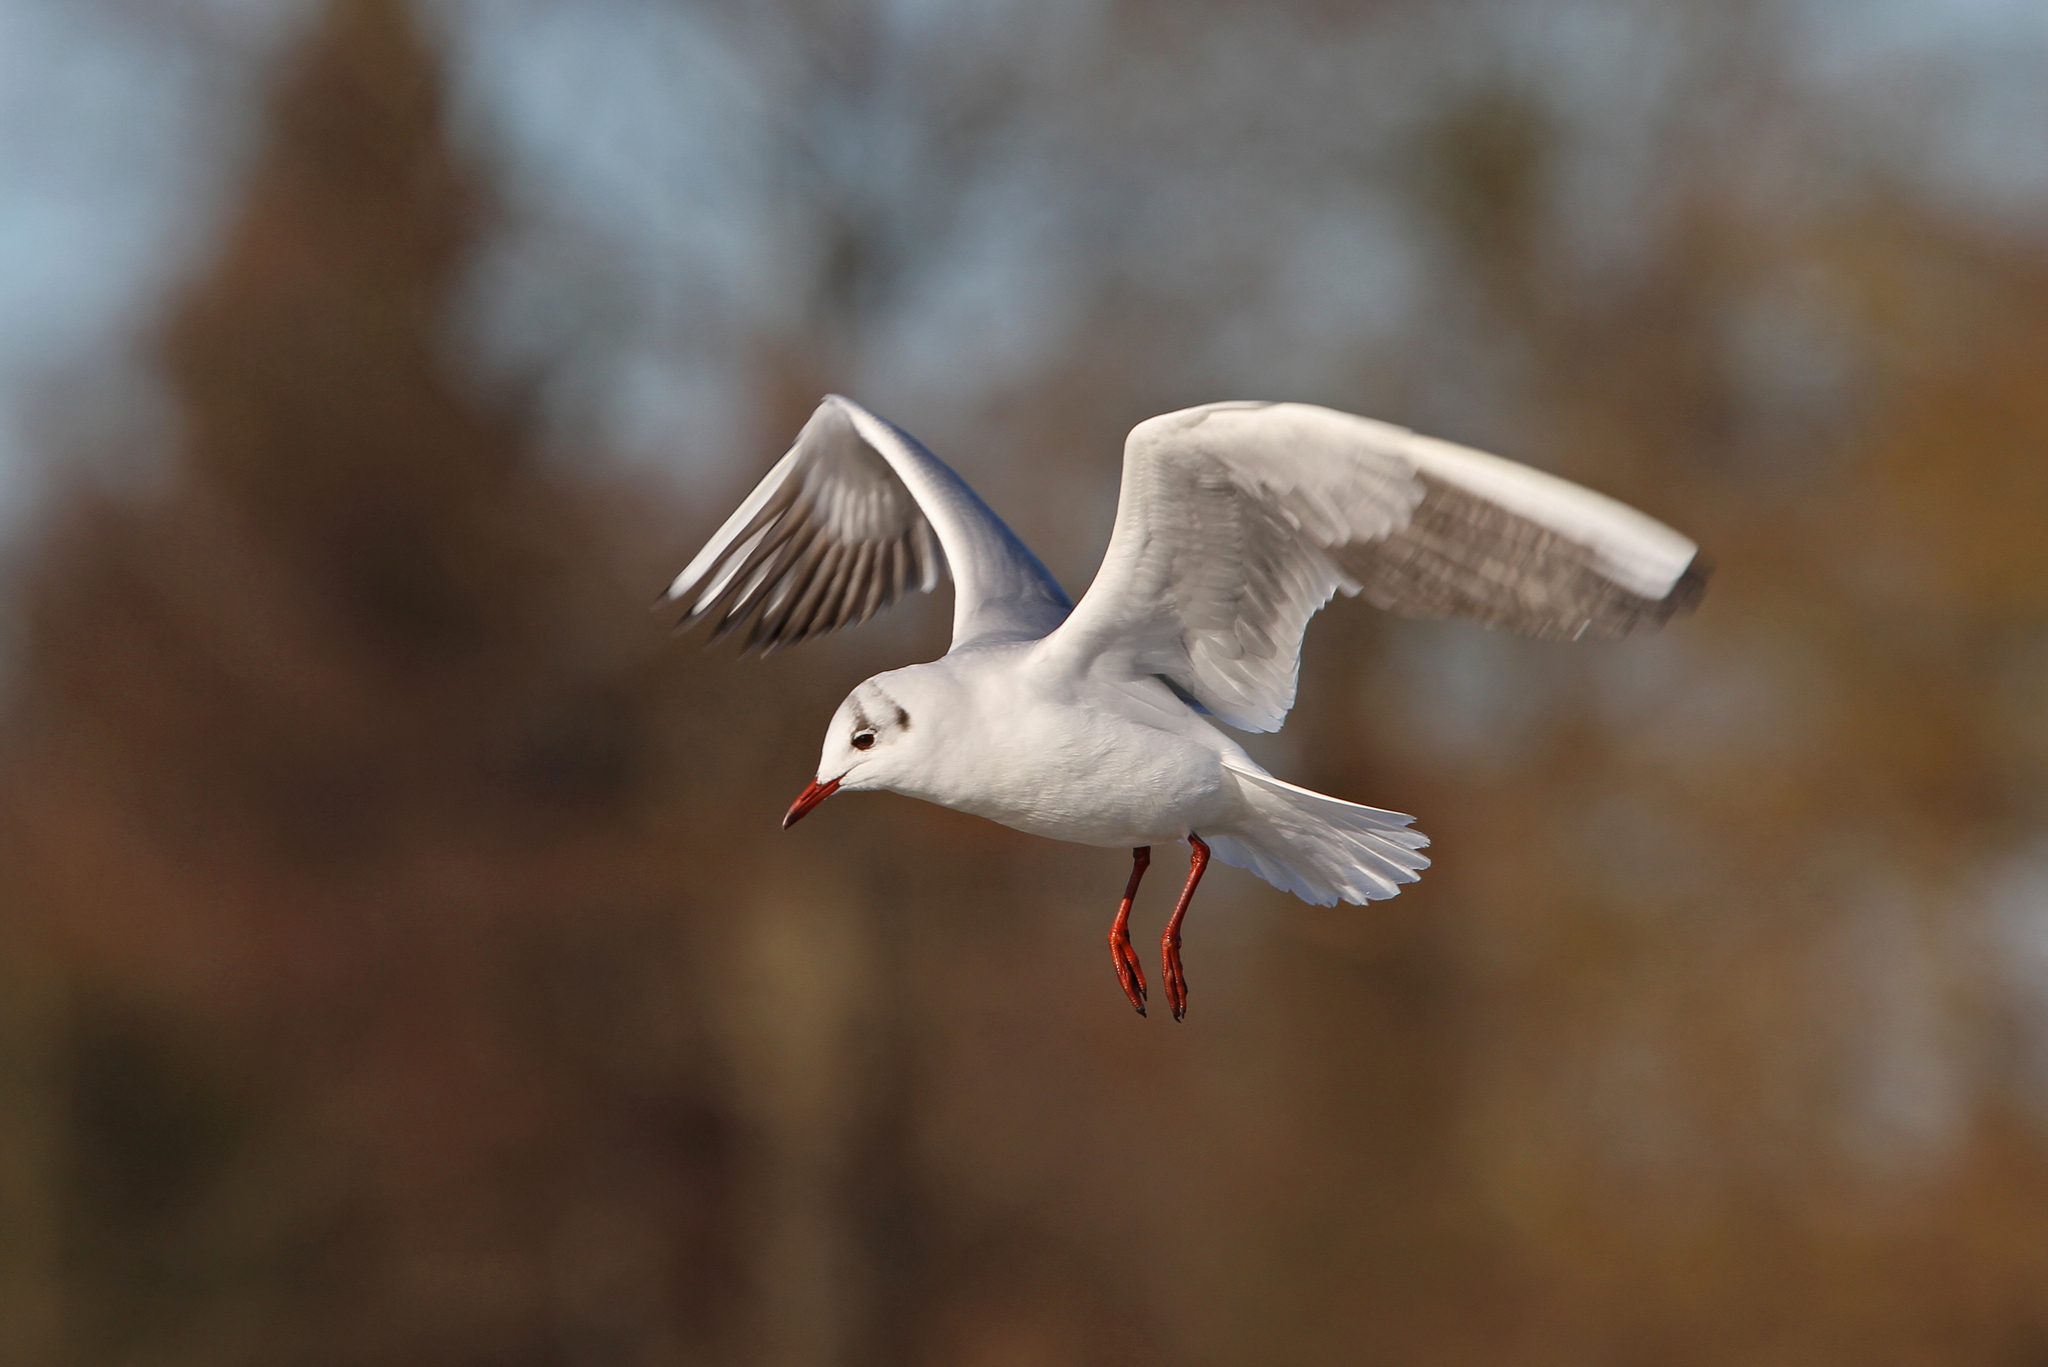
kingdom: Animalia
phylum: Chordata
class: Aves
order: Charadriiformes
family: Laridae
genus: Chroicocephalus
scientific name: Chroicocephalus ridibundus
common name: Black-headed gull
